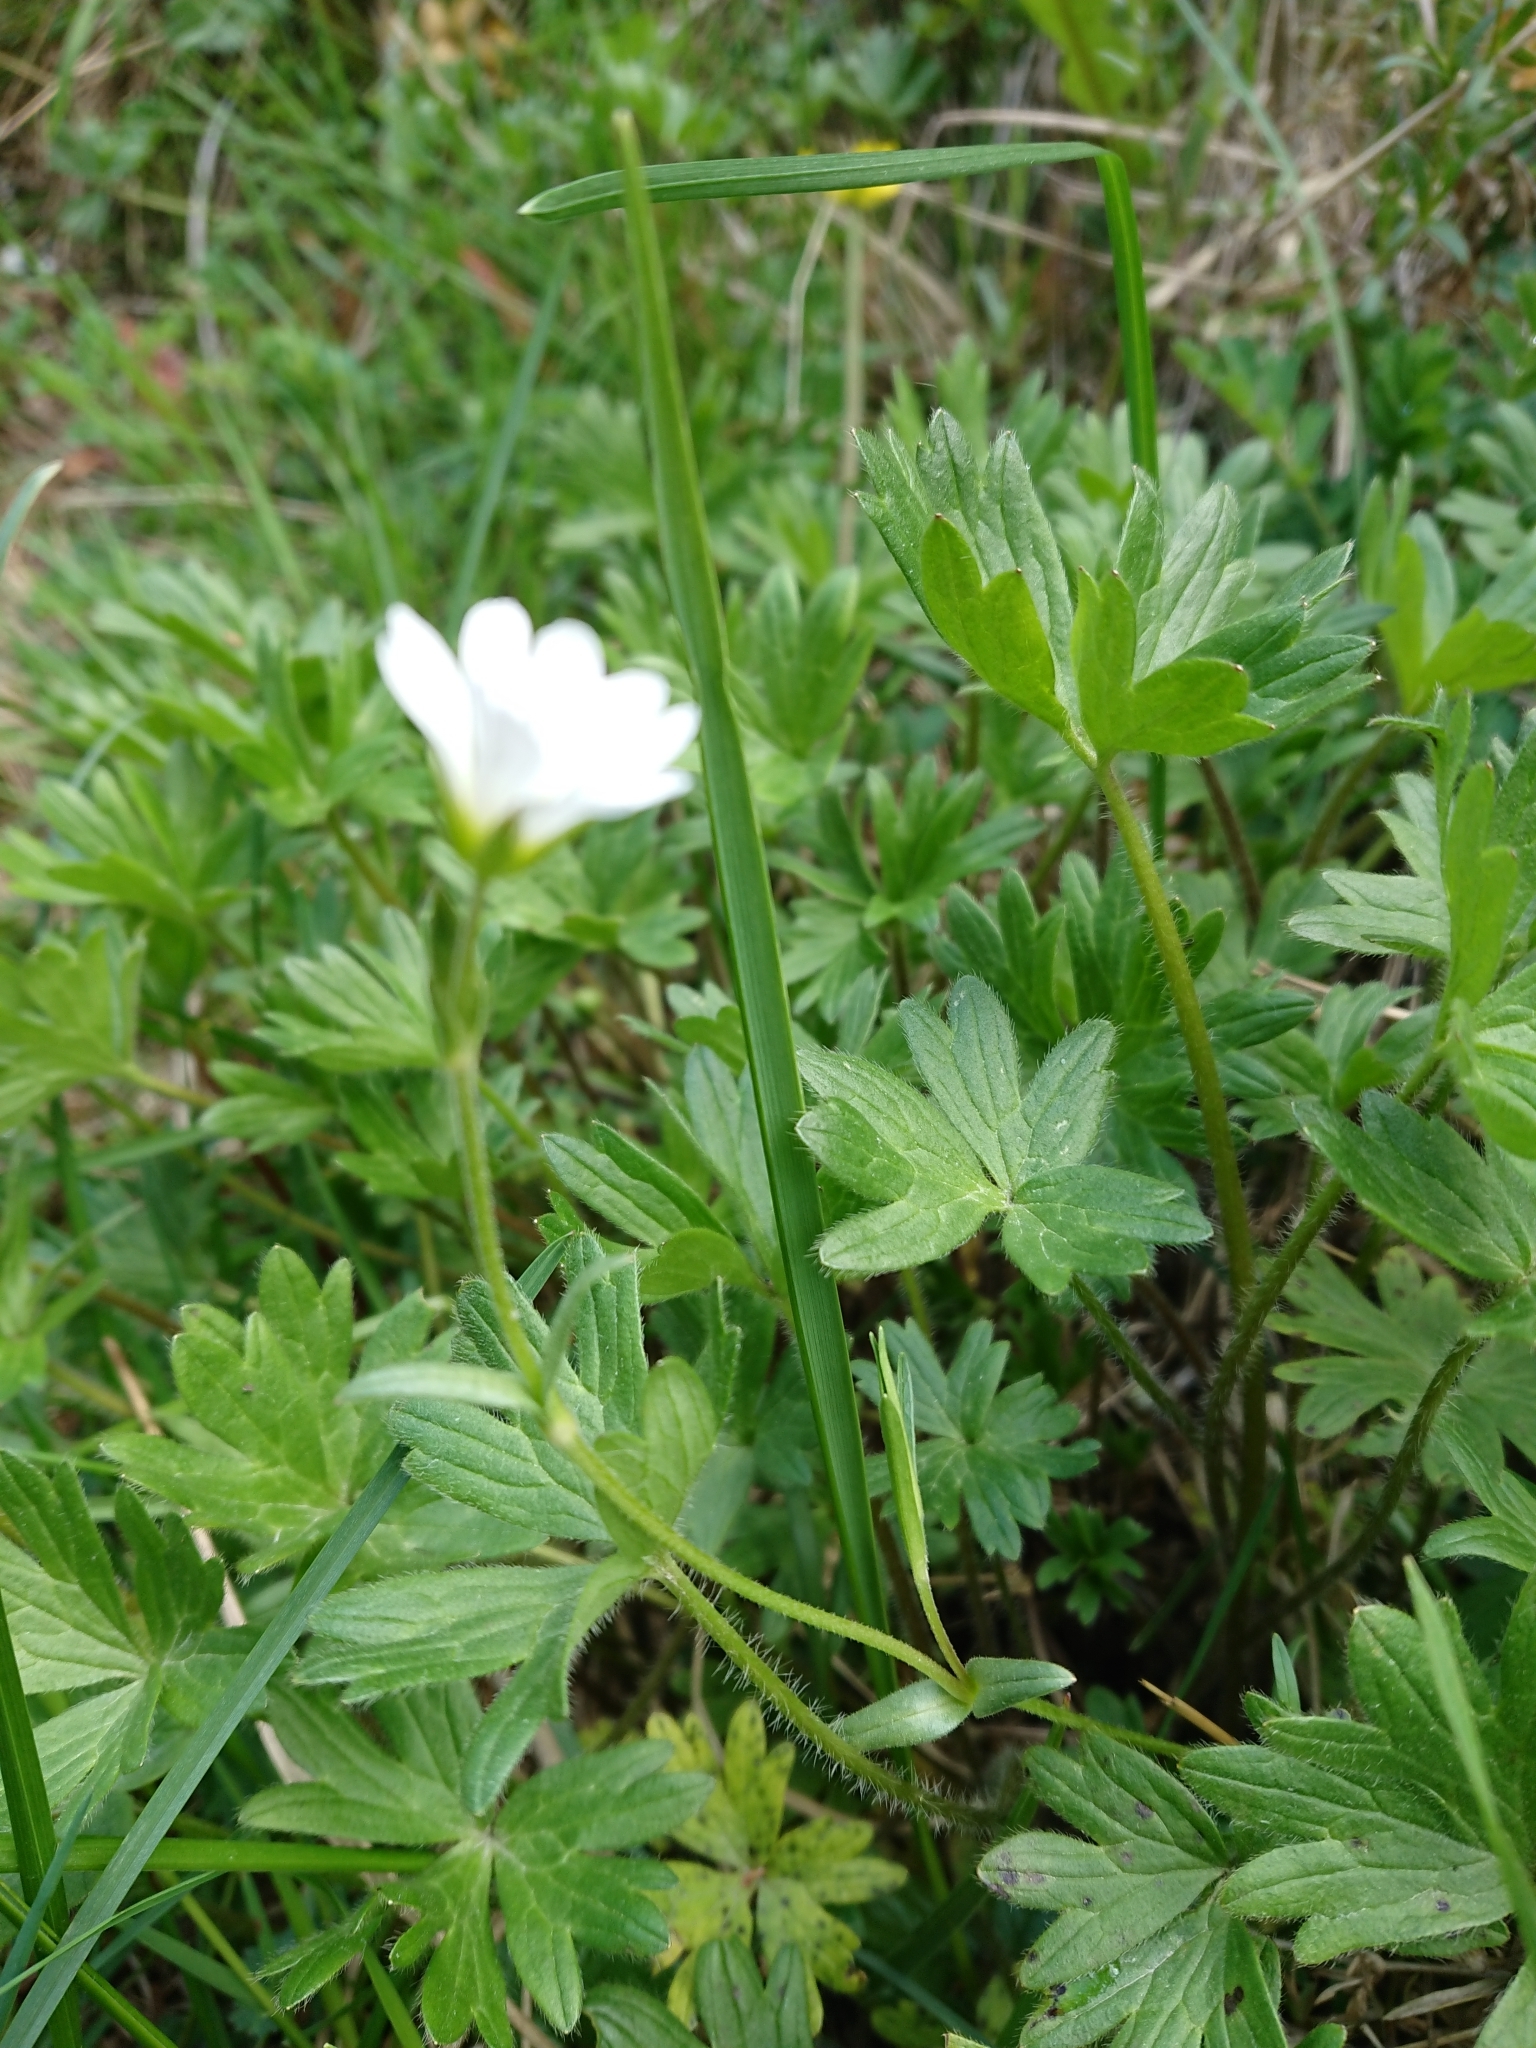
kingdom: Plantae
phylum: Tracheophyta
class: Magnoliopsida
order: Caryophyllales
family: Caryophyllaceae
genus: Cerastium
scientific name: Cerastium arvense
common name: Field mouse-ear
